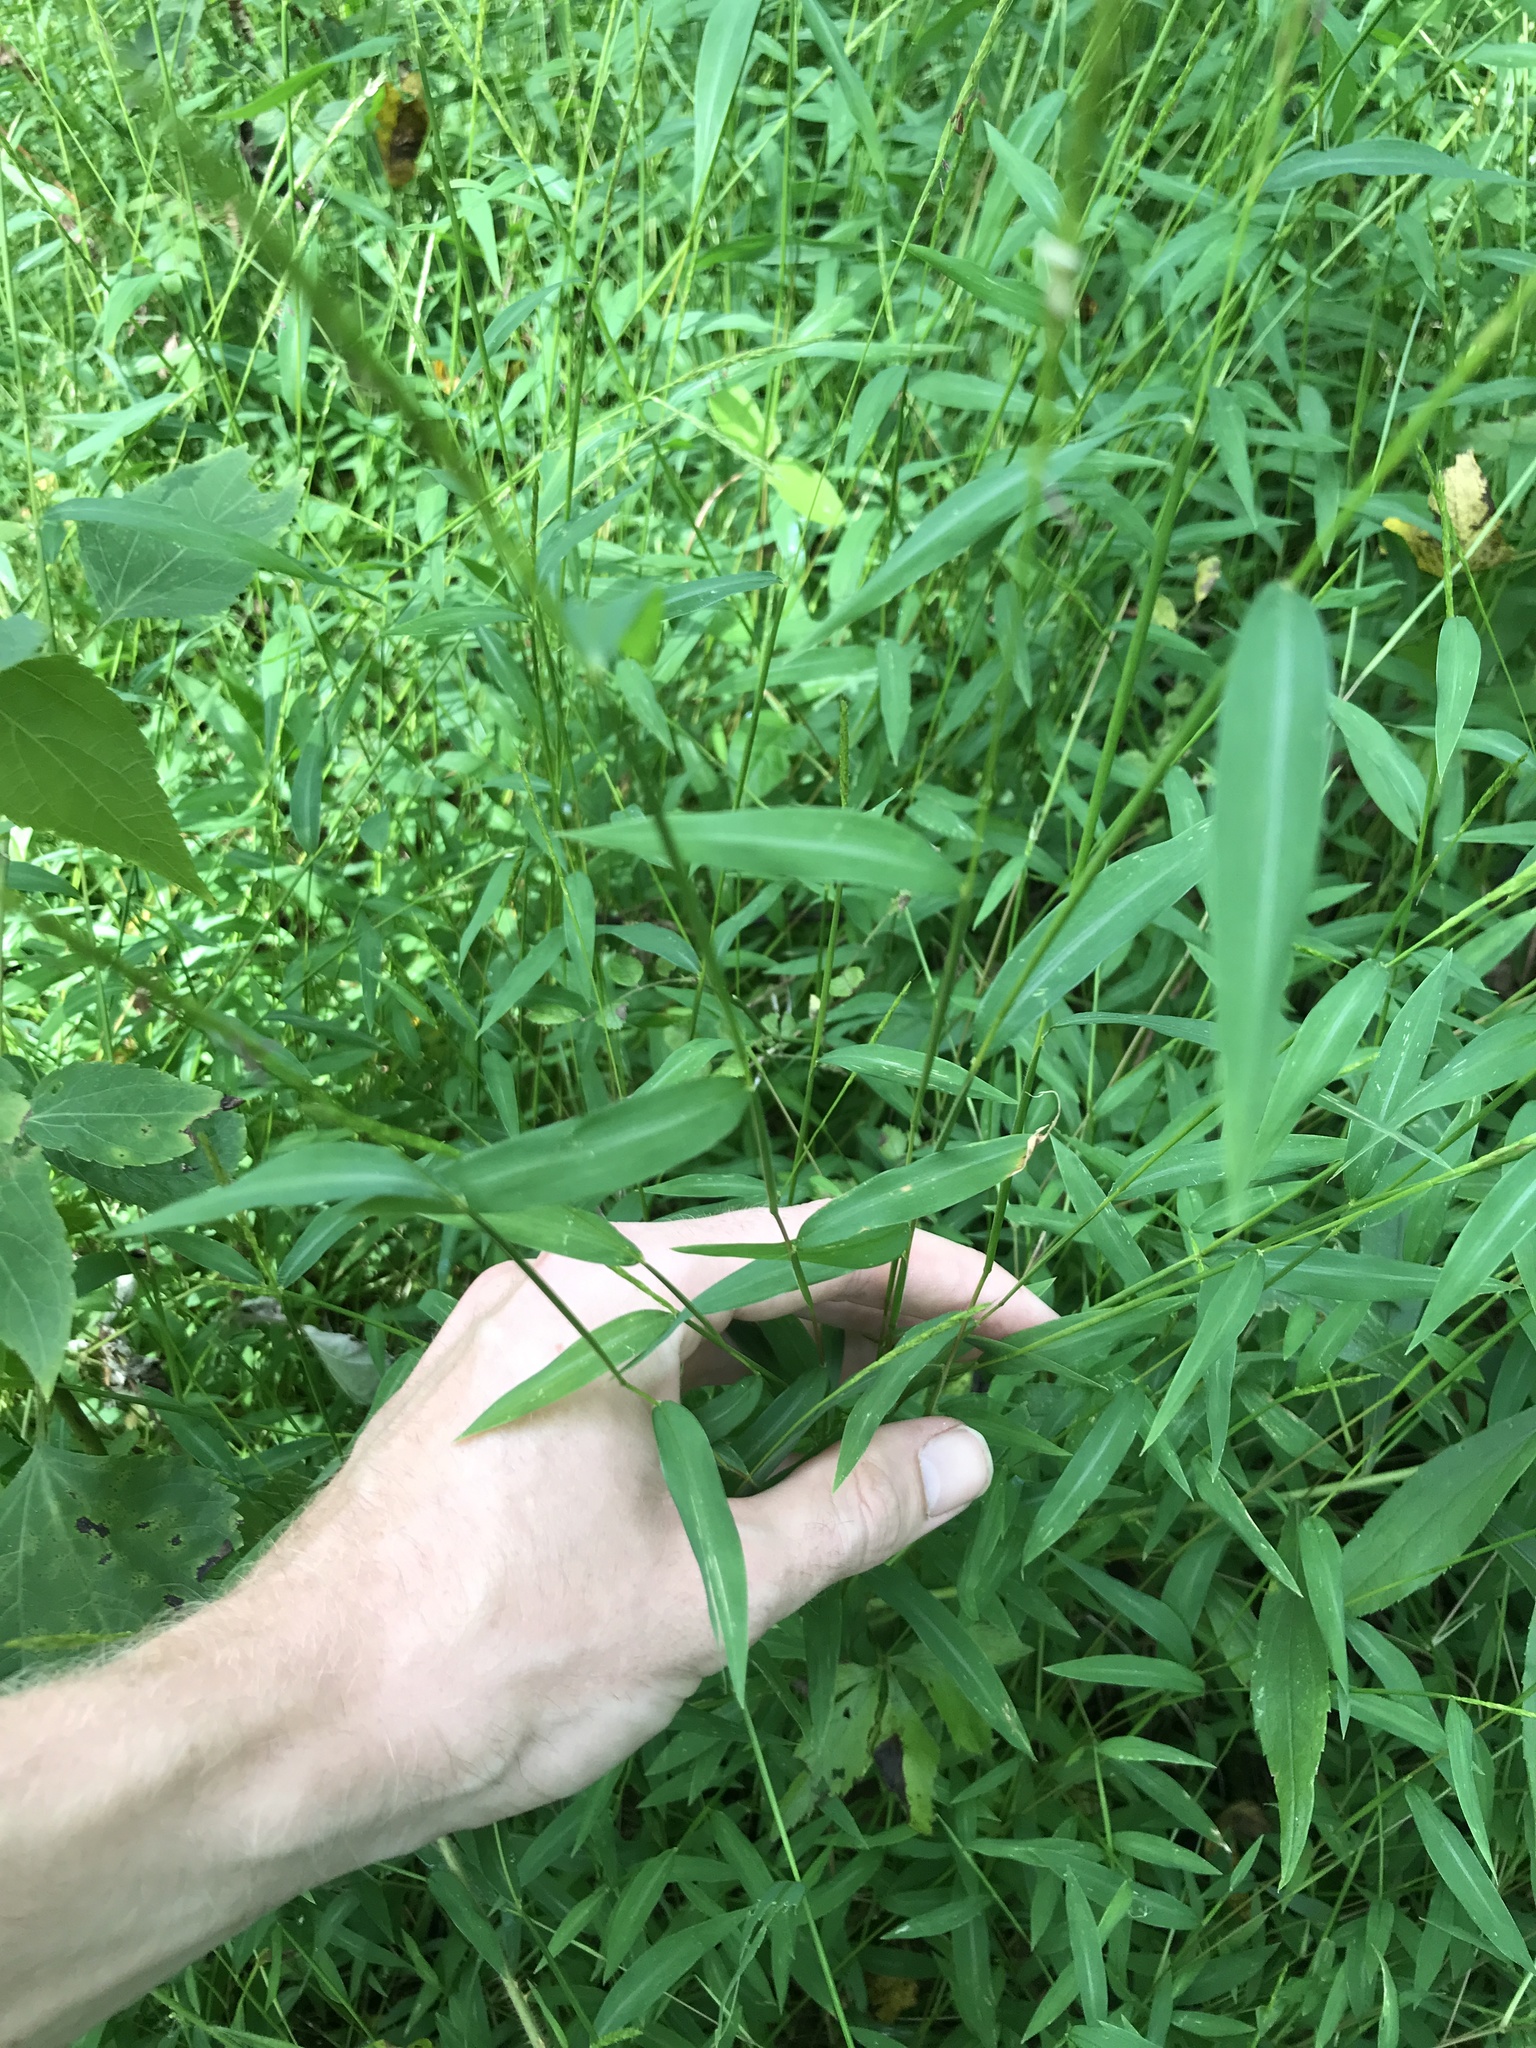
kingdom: Plantae
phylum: Tracheophyta
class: Liliopsida
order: Poales
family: Poaceae
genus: Microstegium
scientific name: Microstegium vimineum
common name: Japanese stiltgrass
